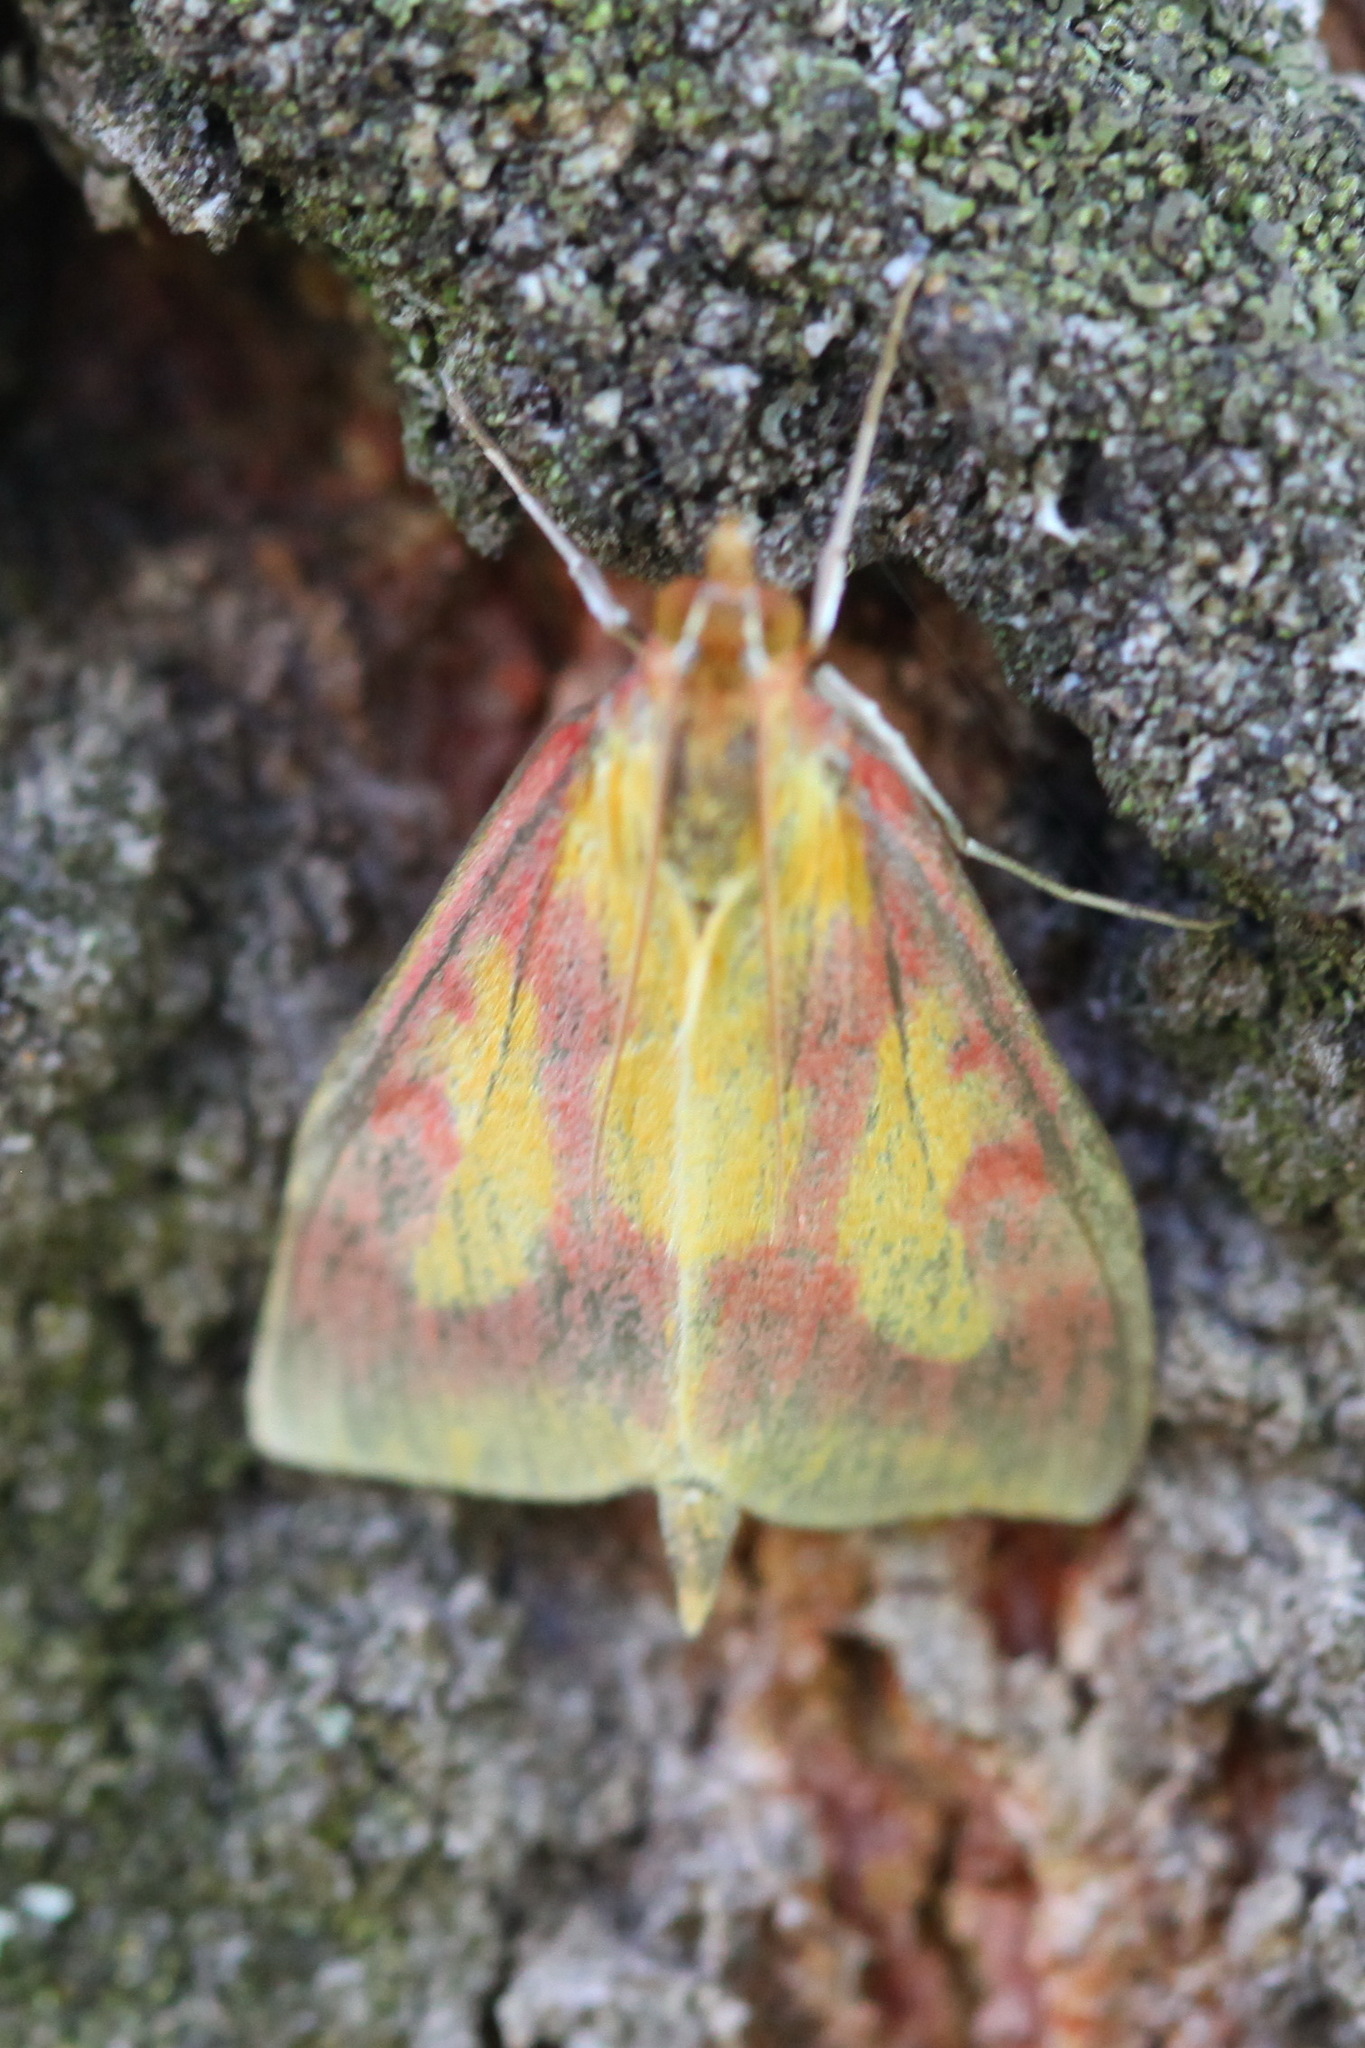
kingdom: Animalia
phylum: Arthropoda
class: Insecta
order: Lepidoptera
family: Crambidae
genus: Ostrinia
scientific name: Ostrinia palustralis
